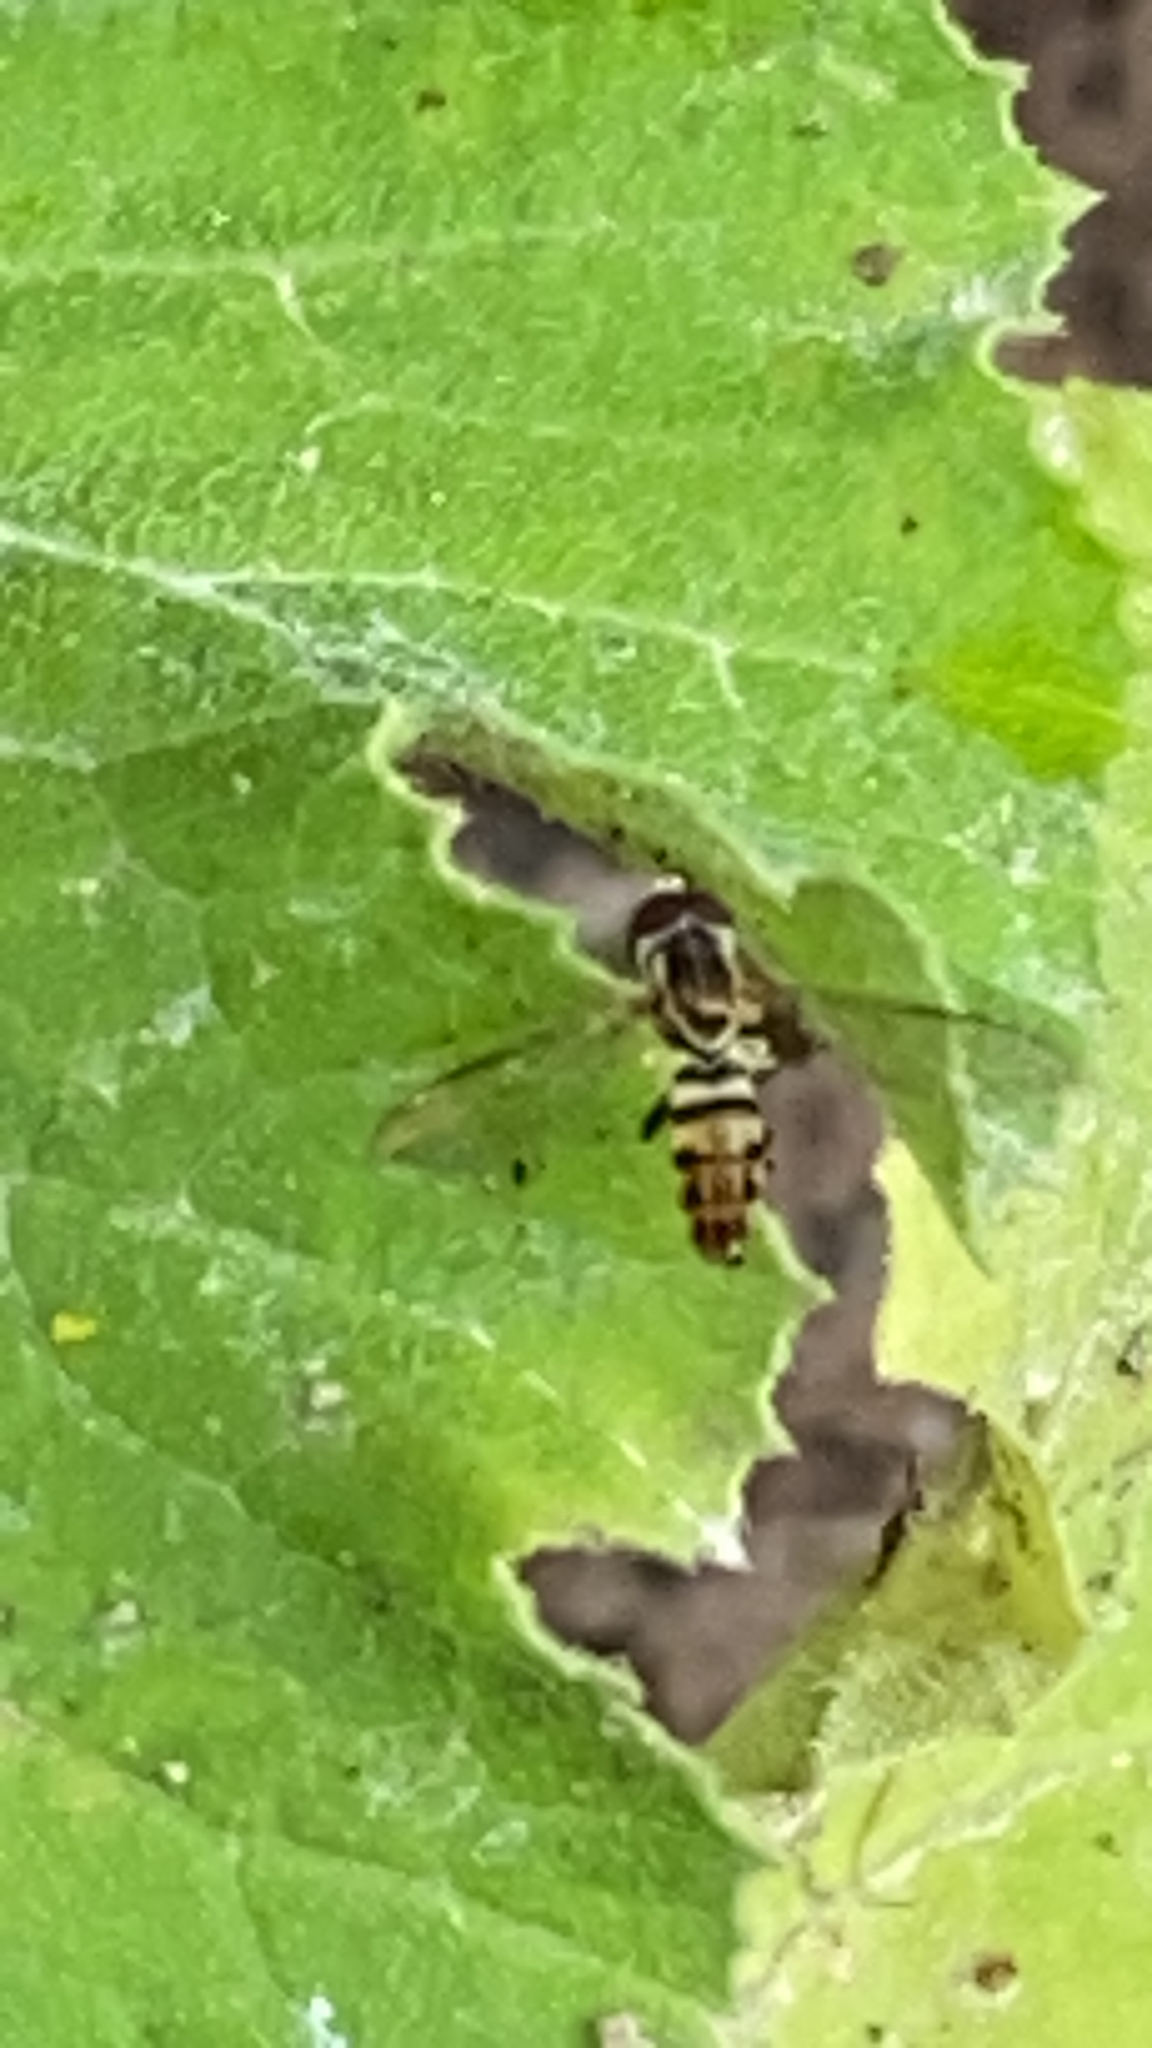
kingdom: Animalia
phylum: Arthropoda
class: Insecta
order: Diptera
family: Syrphidae
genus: Toxomerus
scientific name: Toxomerus geminatus
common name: Eastern calligrapher
